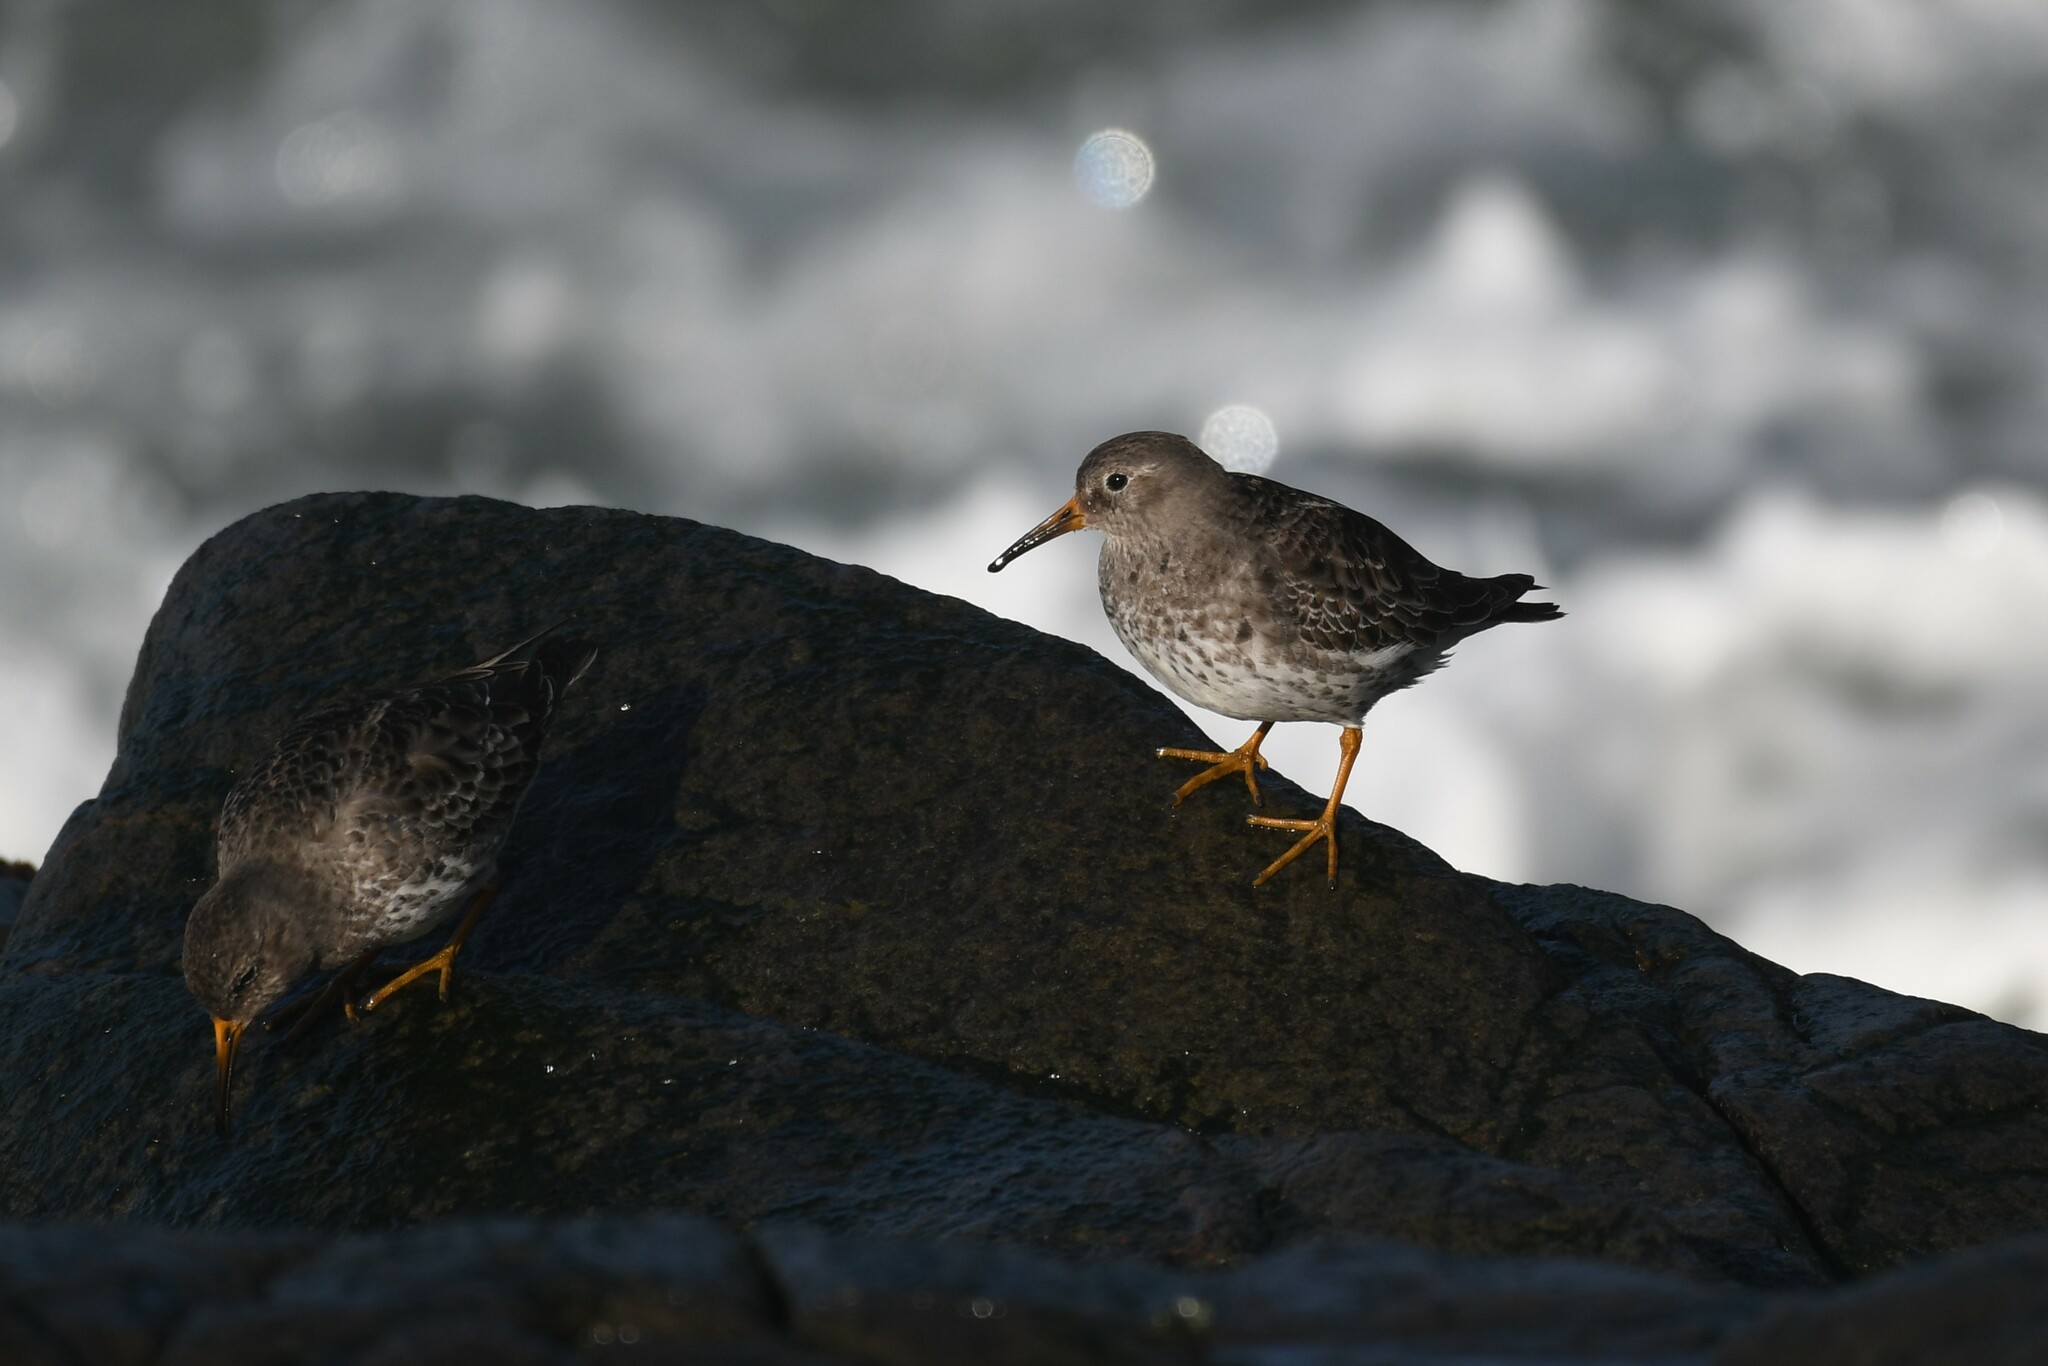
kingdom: Animalia
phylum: Chordata
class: Aves
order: Charadriiformes
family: Scolopacidae
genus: Calidris
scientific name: Calidris maritima
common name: Purple sandpiper
